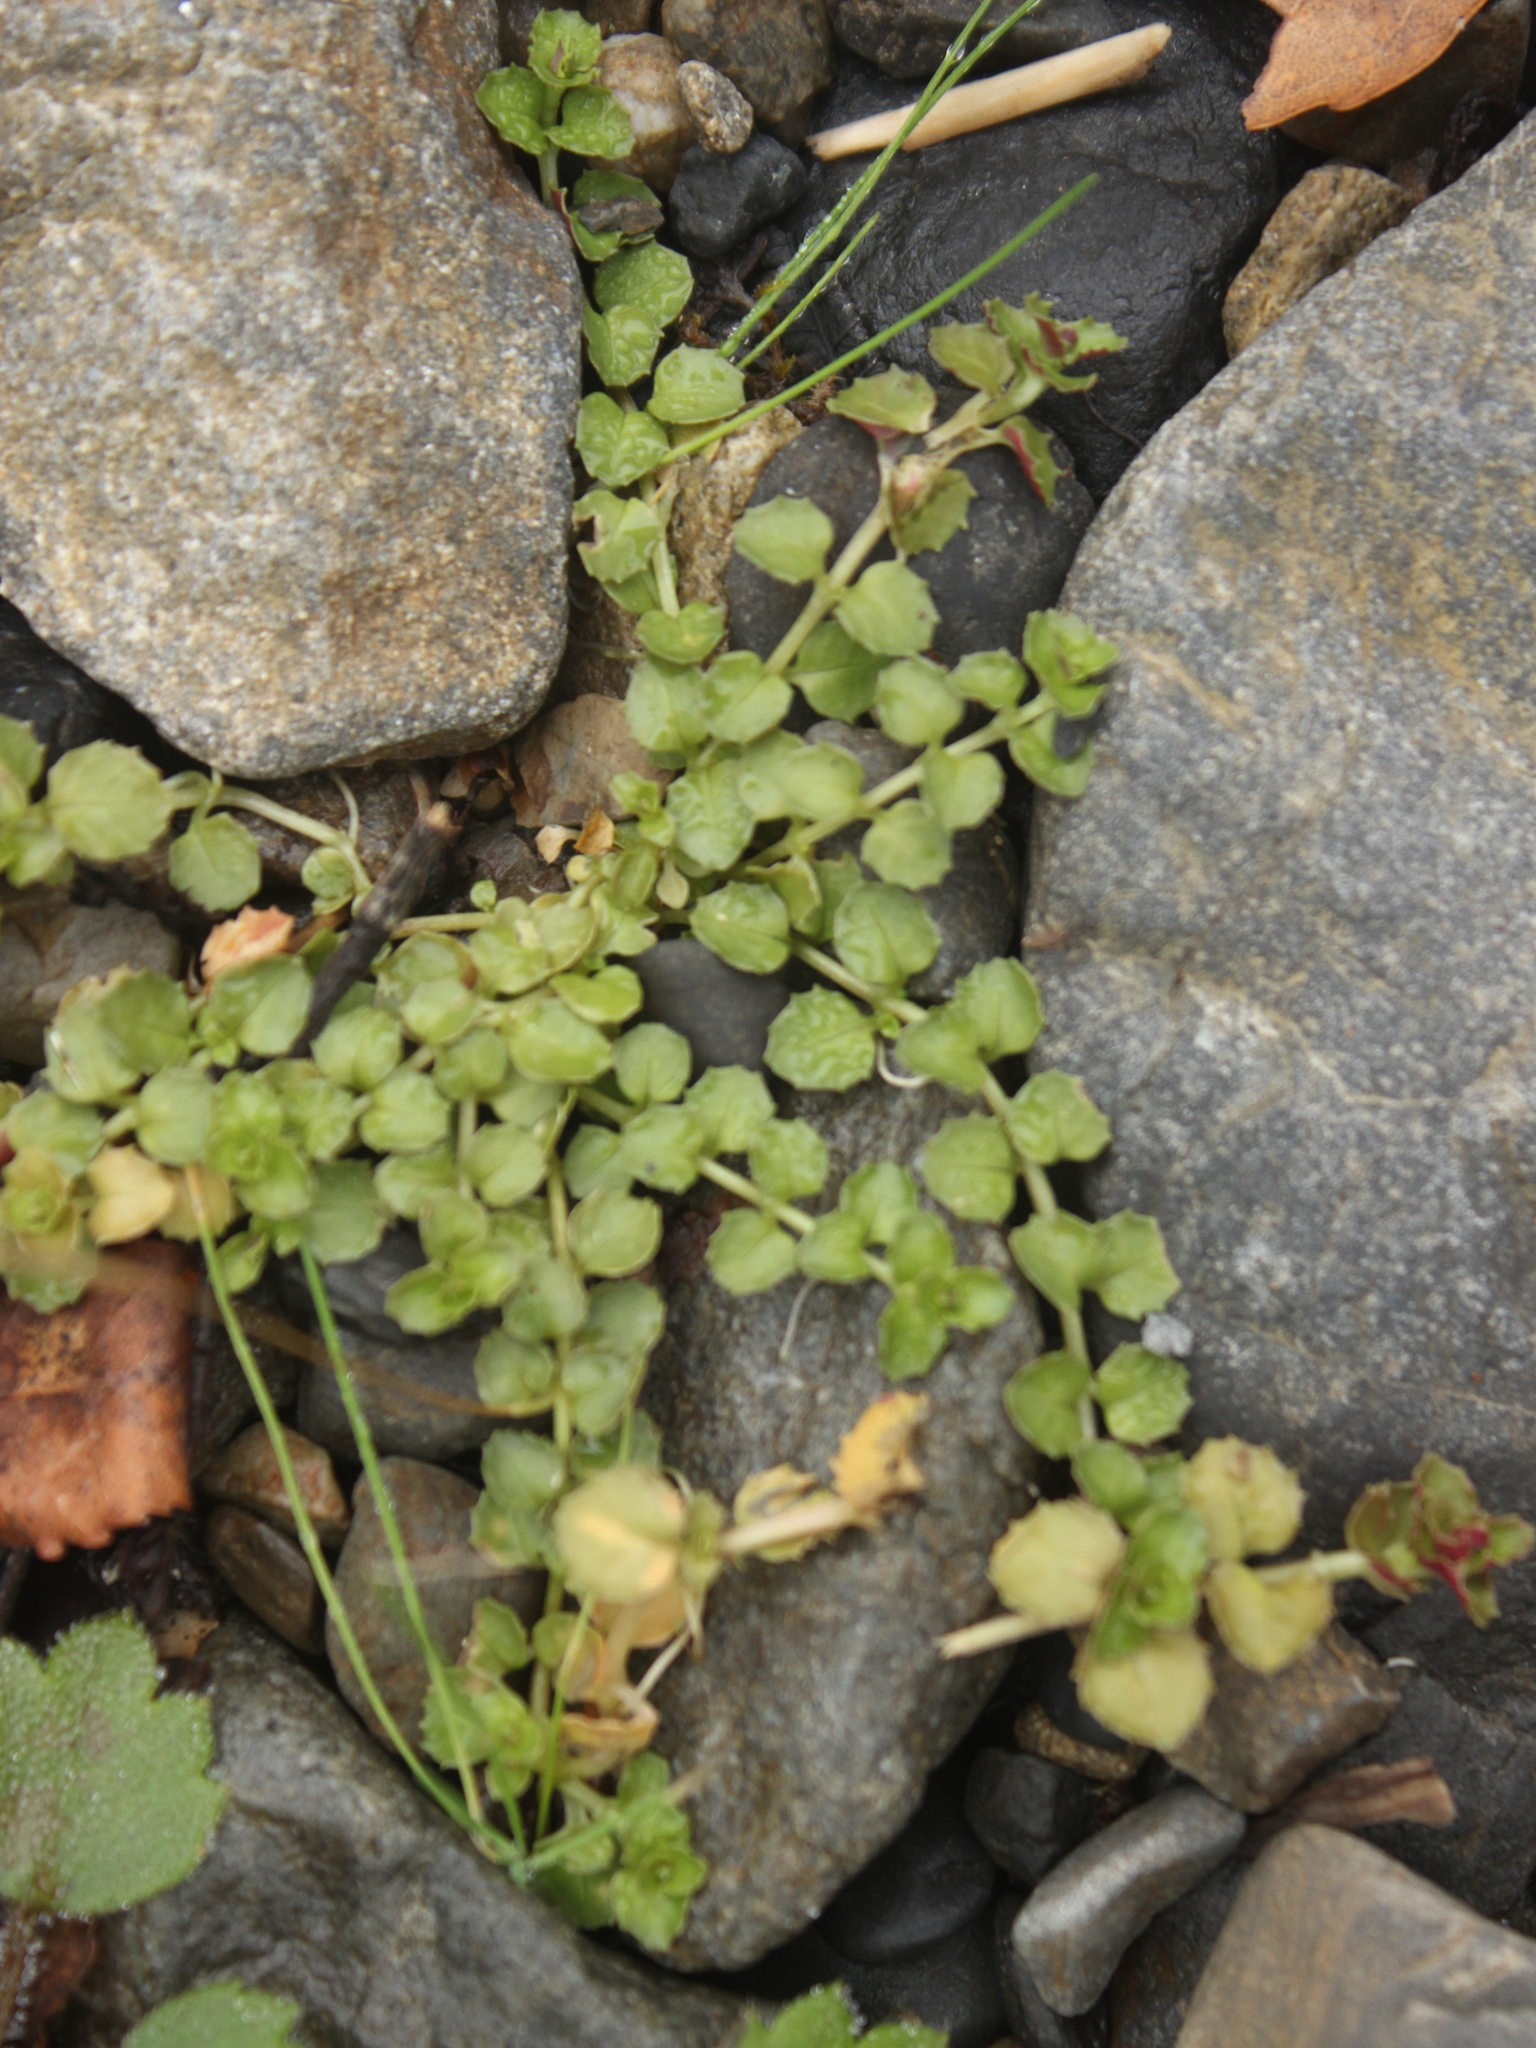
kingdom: Plantae
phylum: Tracheophyta
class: Magnoliopsida
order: Myrtales
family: Onagraceae
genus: Epilobium
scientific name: Epilobium pedunculare
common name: Rockery willowherb
